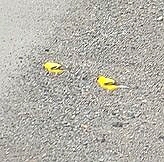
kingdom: Animalia
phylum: Chordata
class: Aves
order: Passeriformes
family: Fringillidae
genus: Spinus
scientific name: Spinus tristis
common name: American goldfinch
